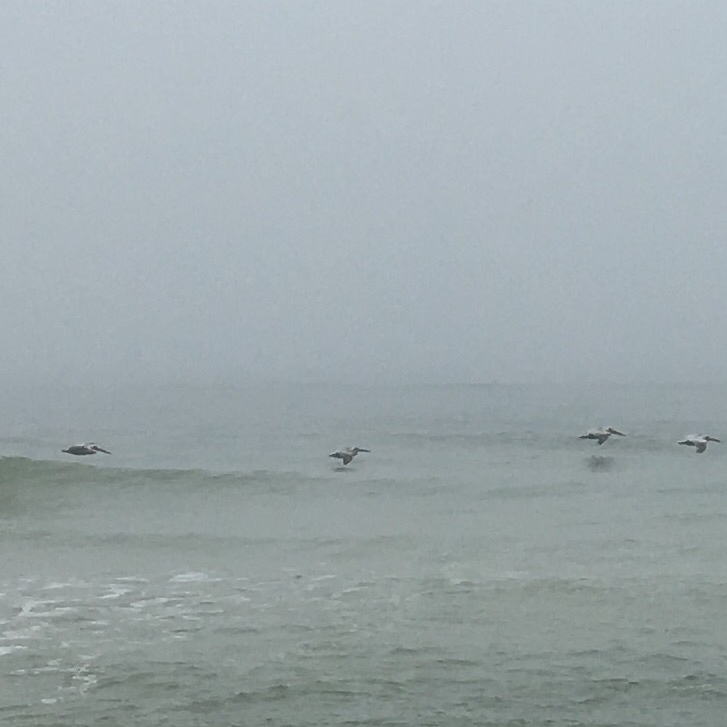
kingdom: Animalia
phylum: Chordata
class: Aves
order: Pelecaniformes
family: Pelecanidae
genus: Pelecanus
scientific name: Pelecanus occidentalis
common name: Brown pelican
